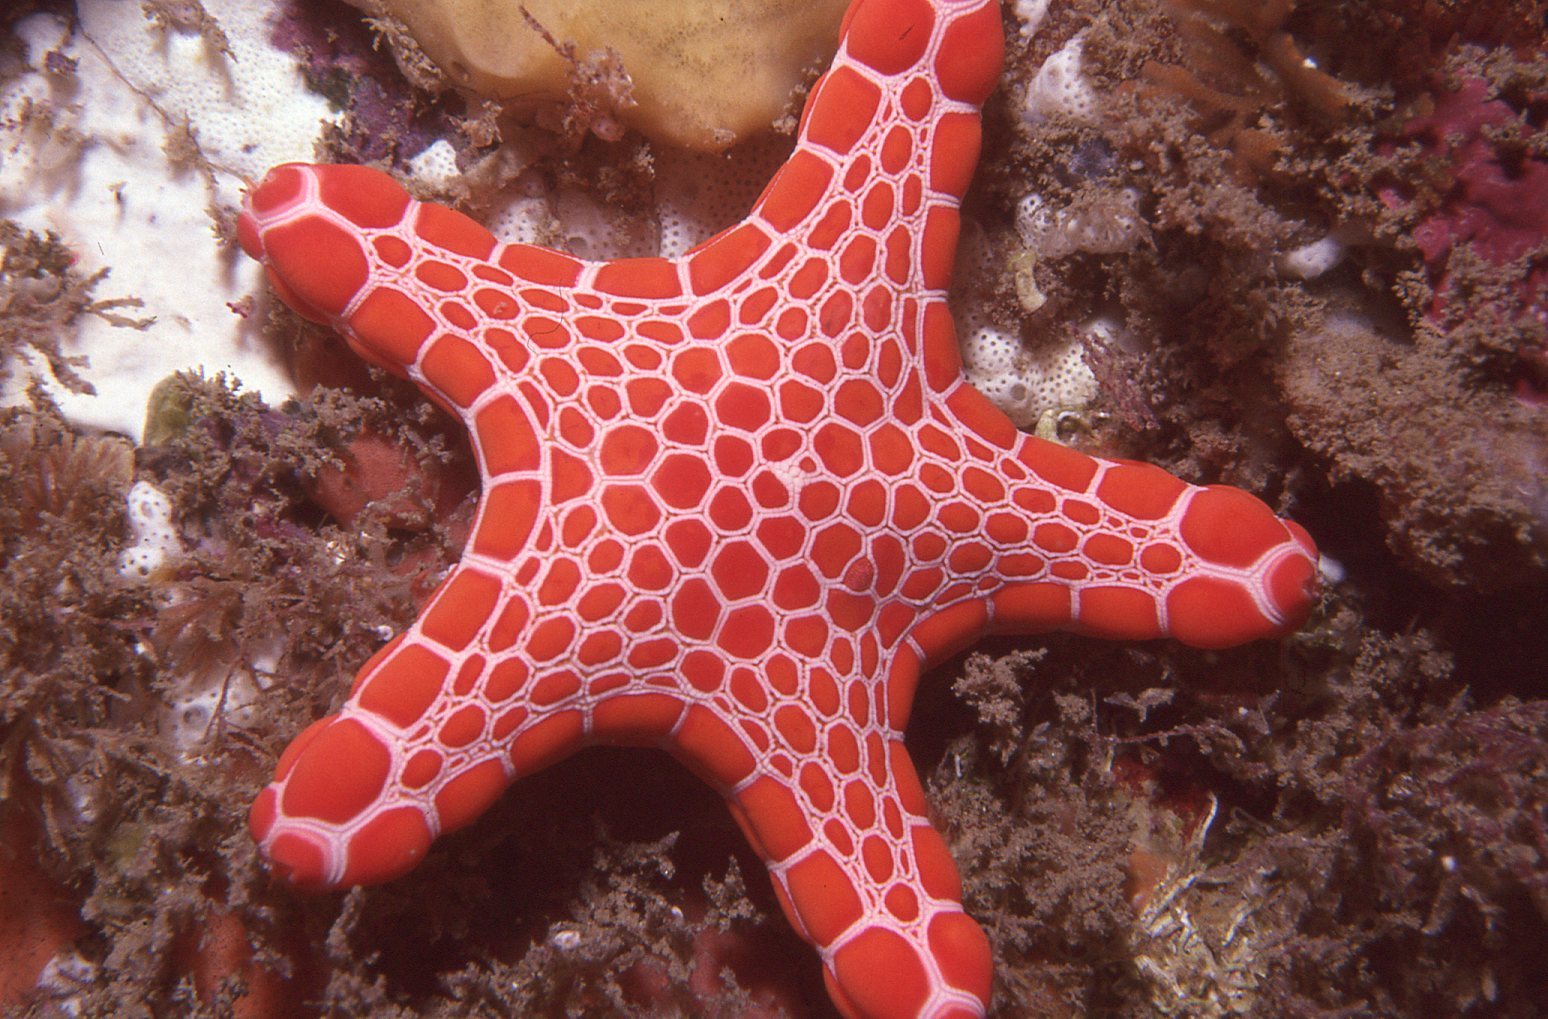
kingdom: Animalia
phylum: Echinodermata
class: Asteroidea
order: Valvatida
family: Goniasteridae
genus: Pentagonaster
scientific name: Pentagonaster duebeni
